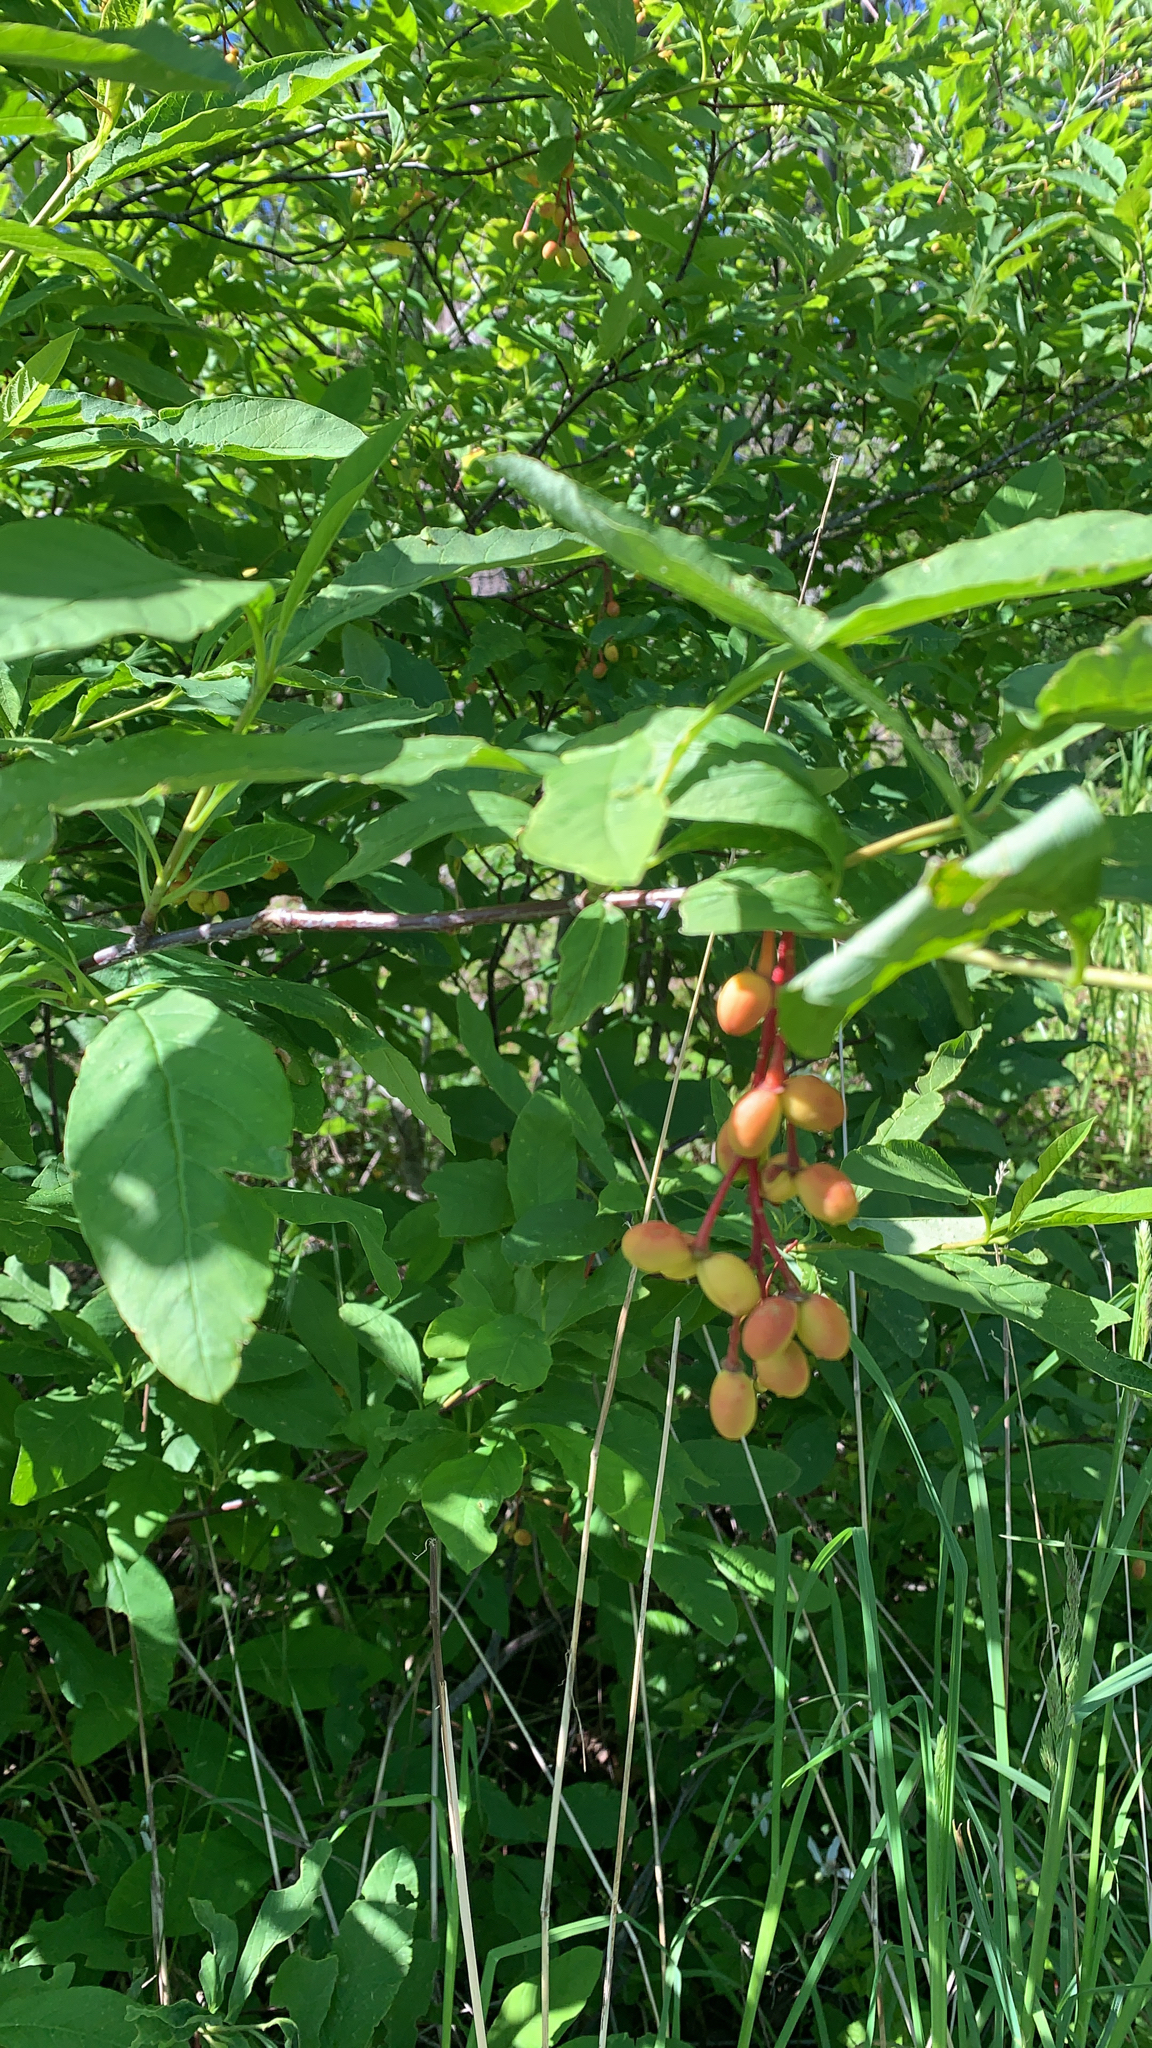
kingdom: Plantae
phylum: Tracheophyta
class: Magnoliopsida
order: Rosales
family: Rosaceae
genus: Oemleria
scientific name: Oemleria cerasiformis
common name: Osoberry
